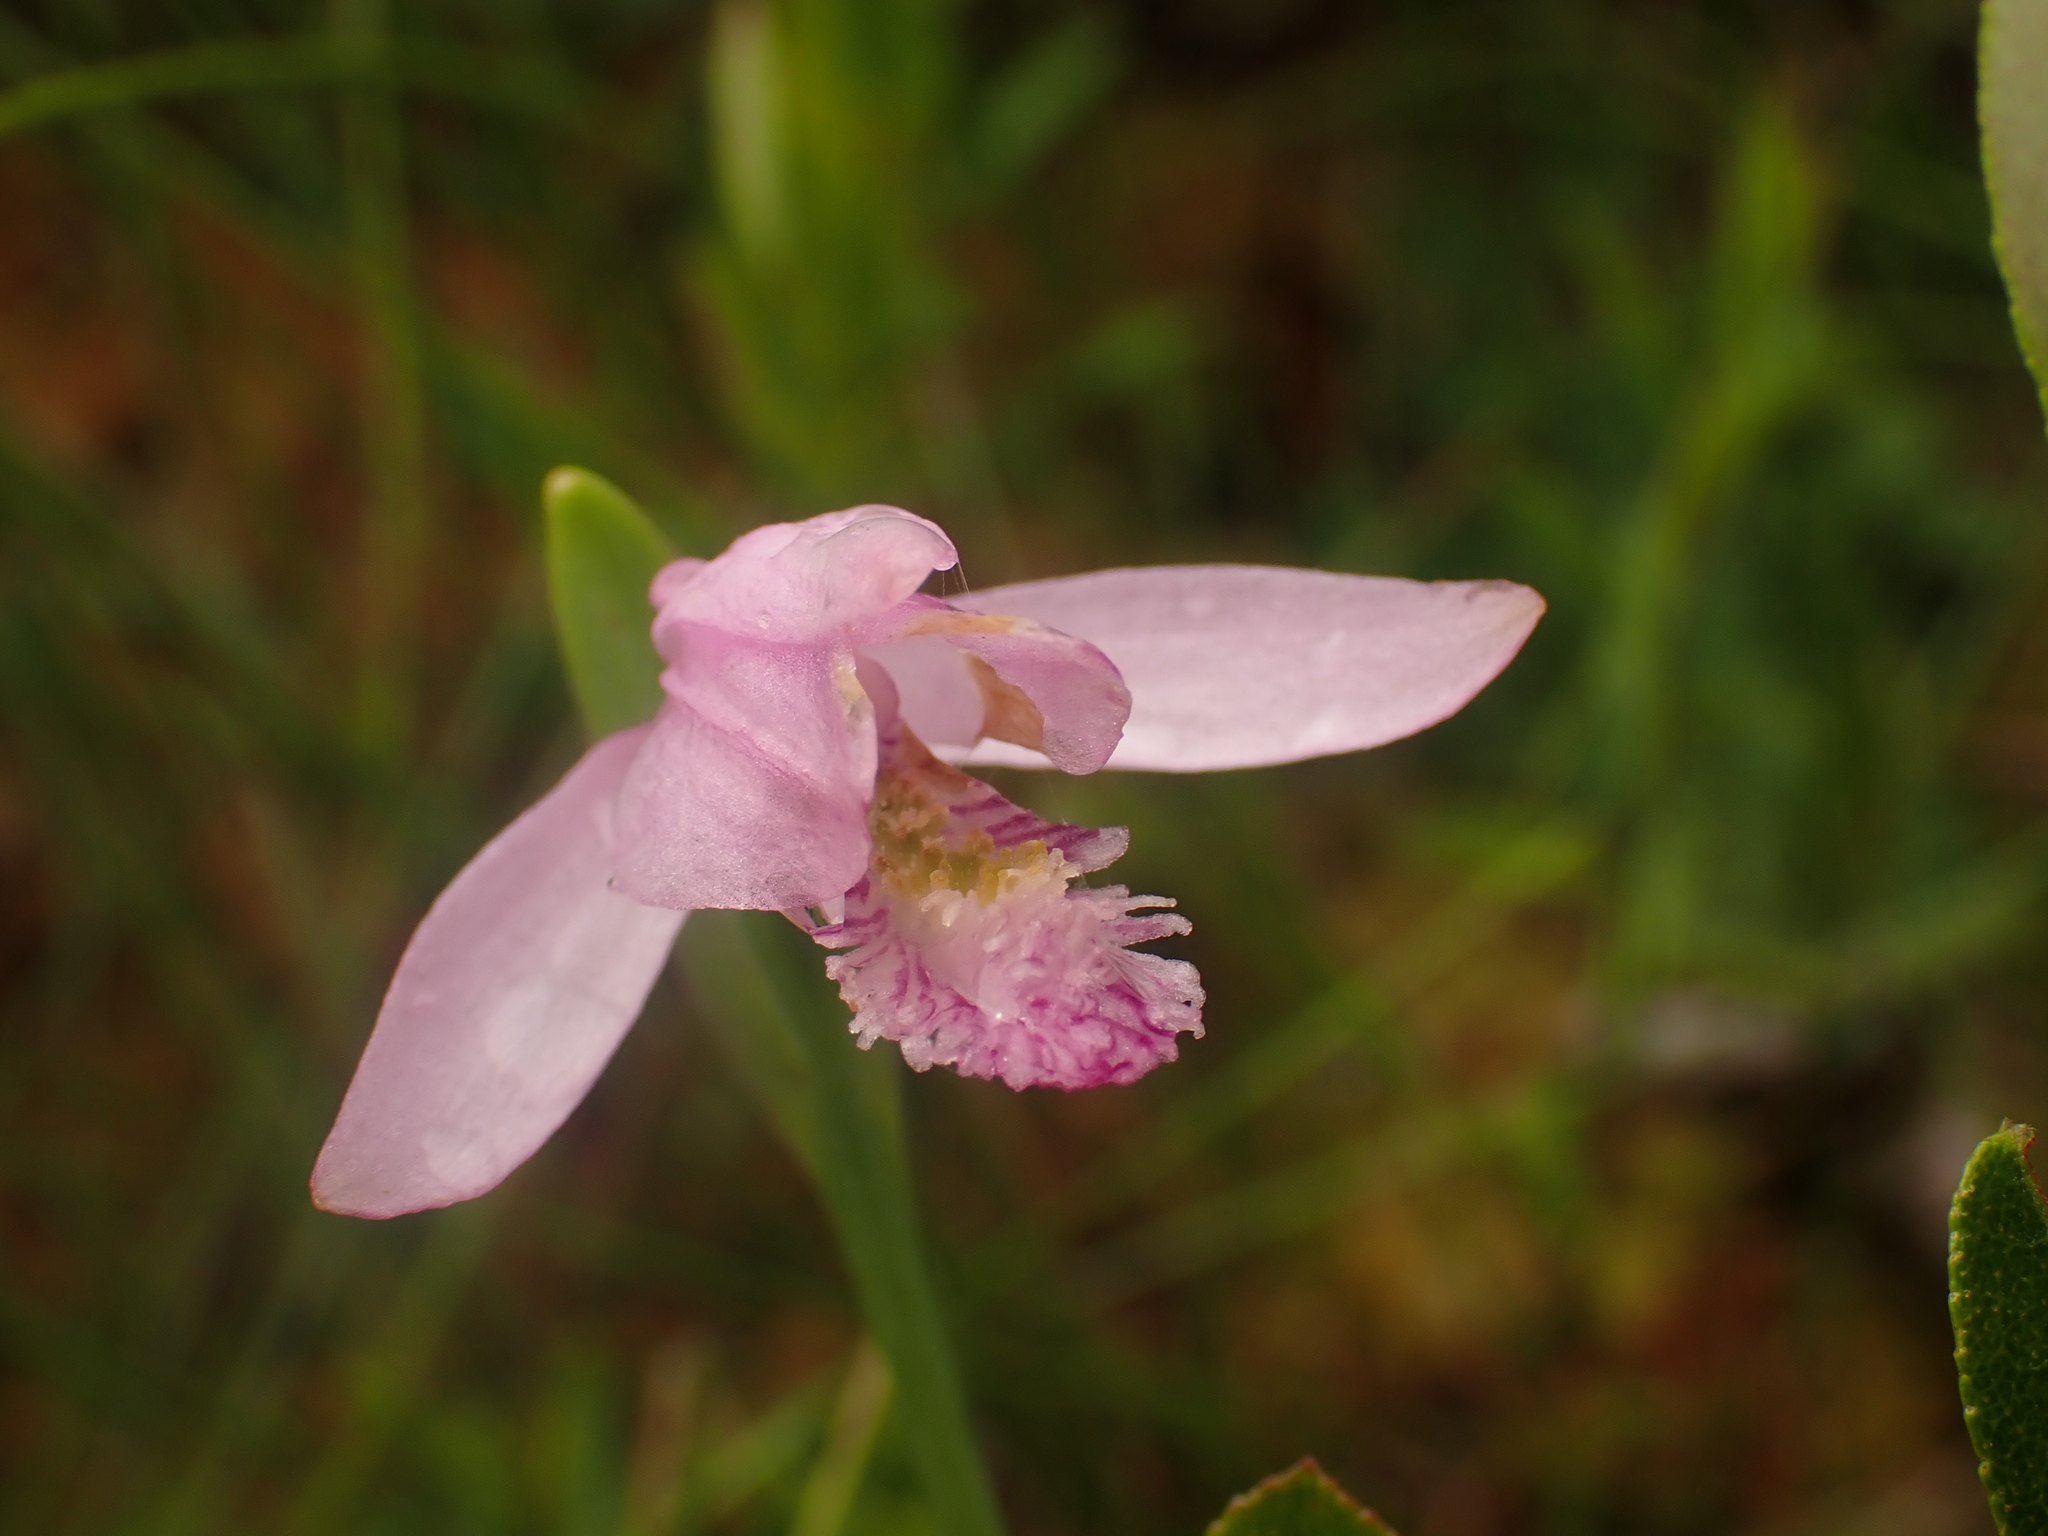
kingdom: Plantae
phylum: Tracheophyta
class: Liliopsida
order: Asparagales
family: Orchidaceae
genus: Pogonia
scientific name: Pogonia ophioglossoides
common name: Rose pogonia
